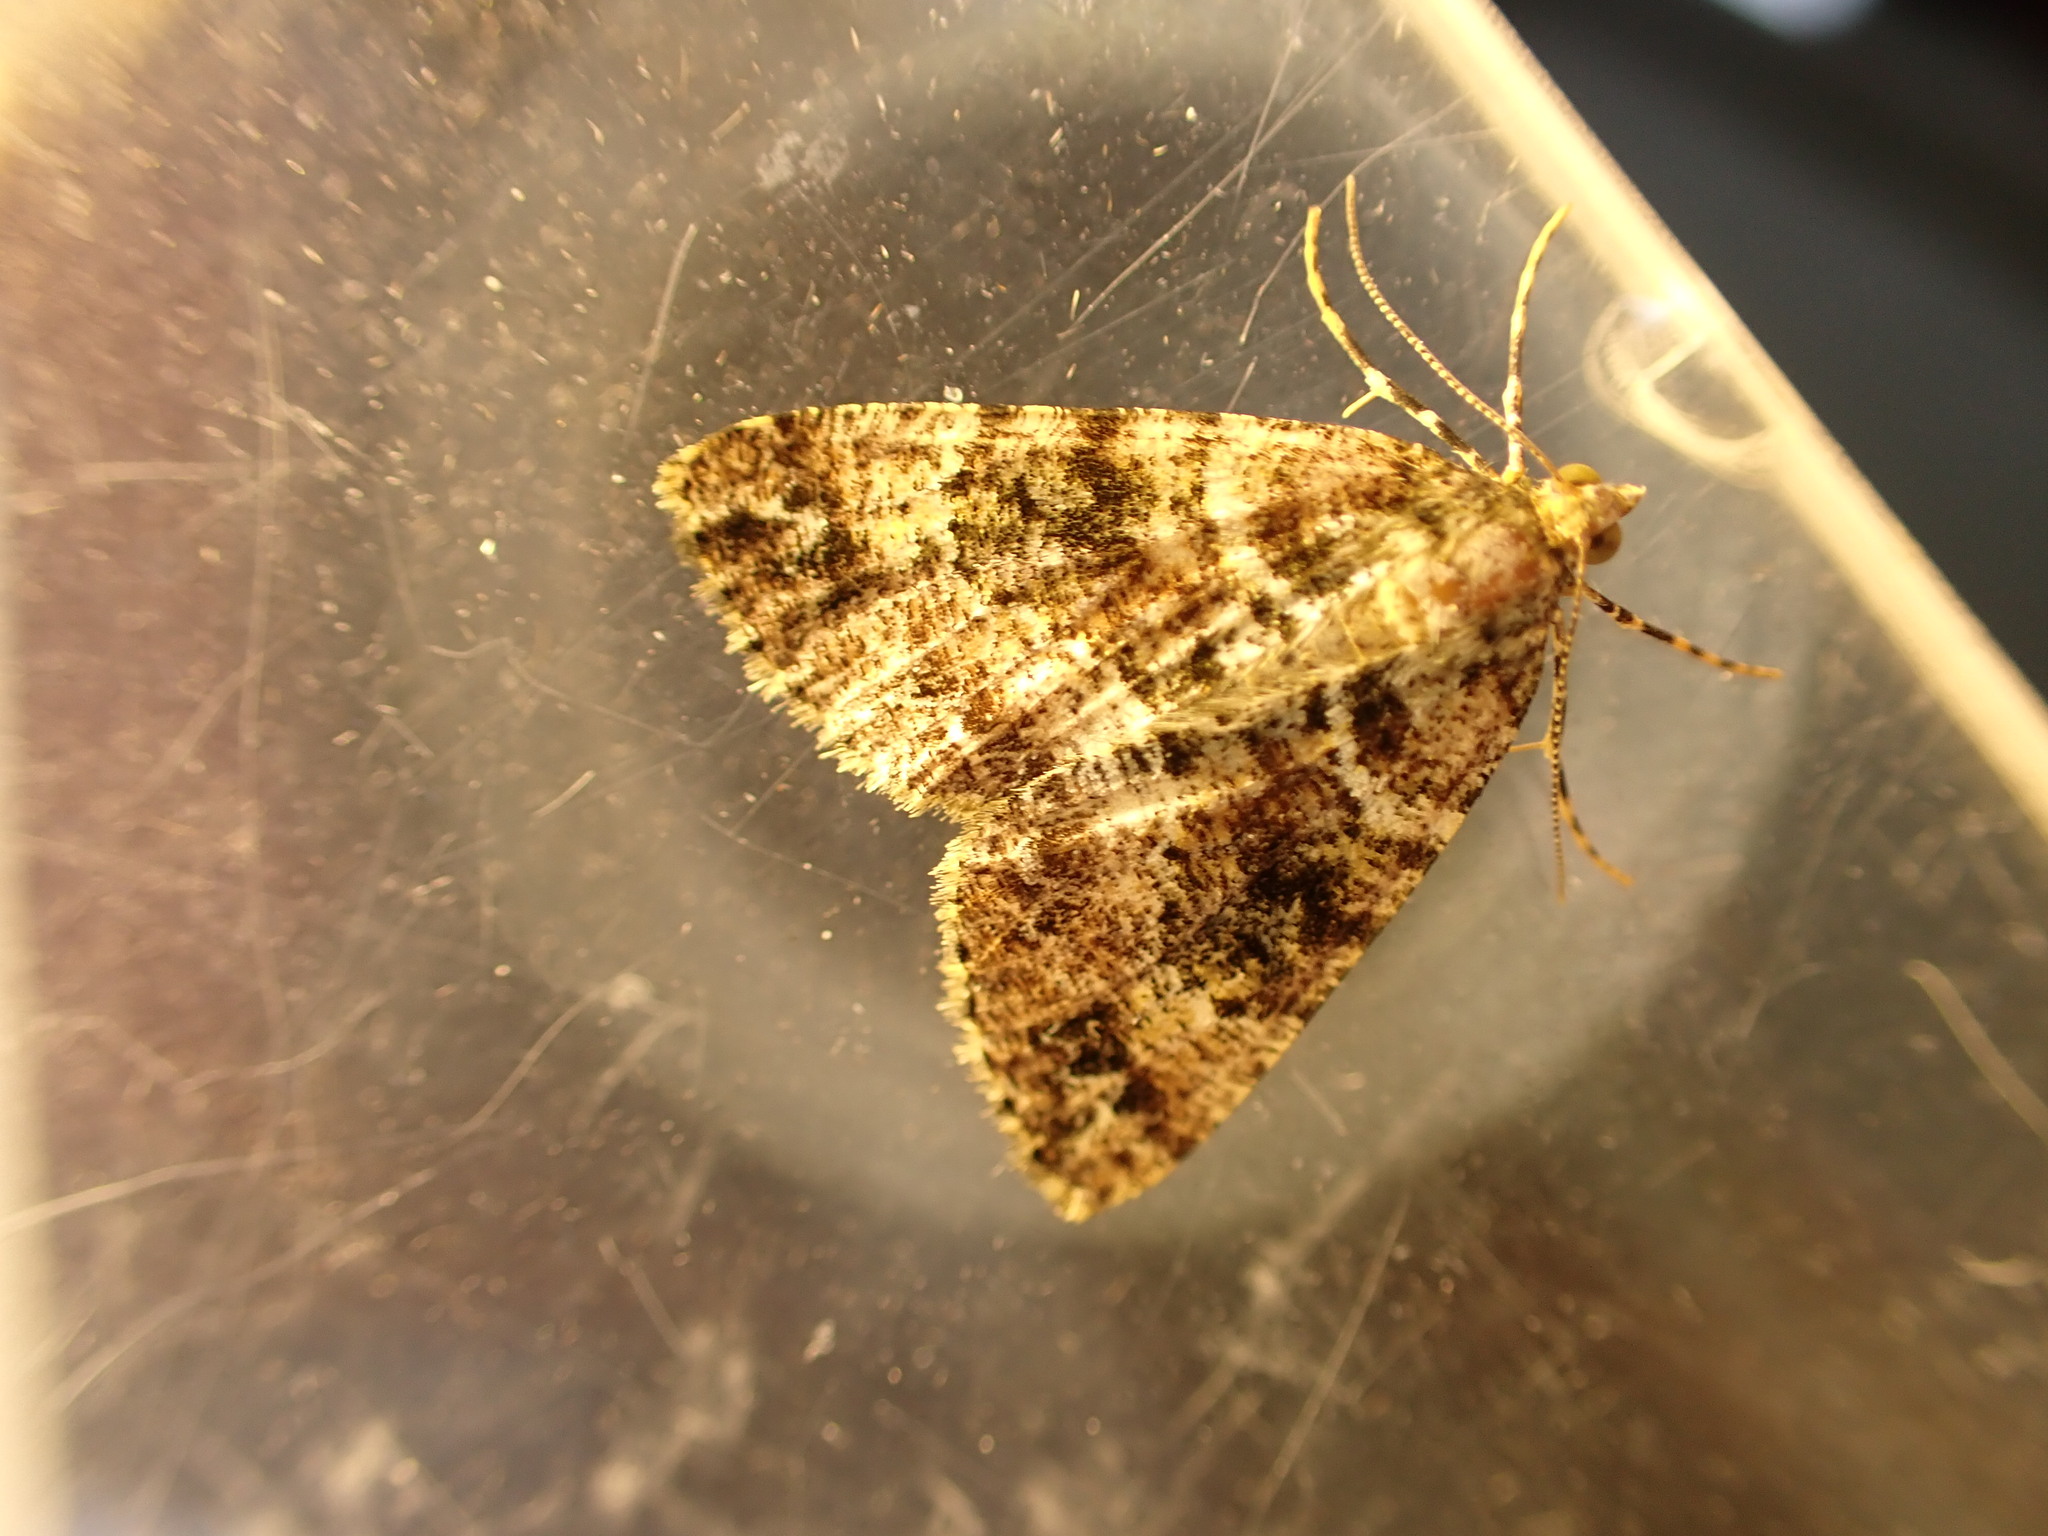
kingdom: Animalia
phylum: Arthropoda
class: Insecta
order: Lepidoptera
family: Geometridae
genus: Pseudocoremia
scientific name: Pseudocoremia productata
